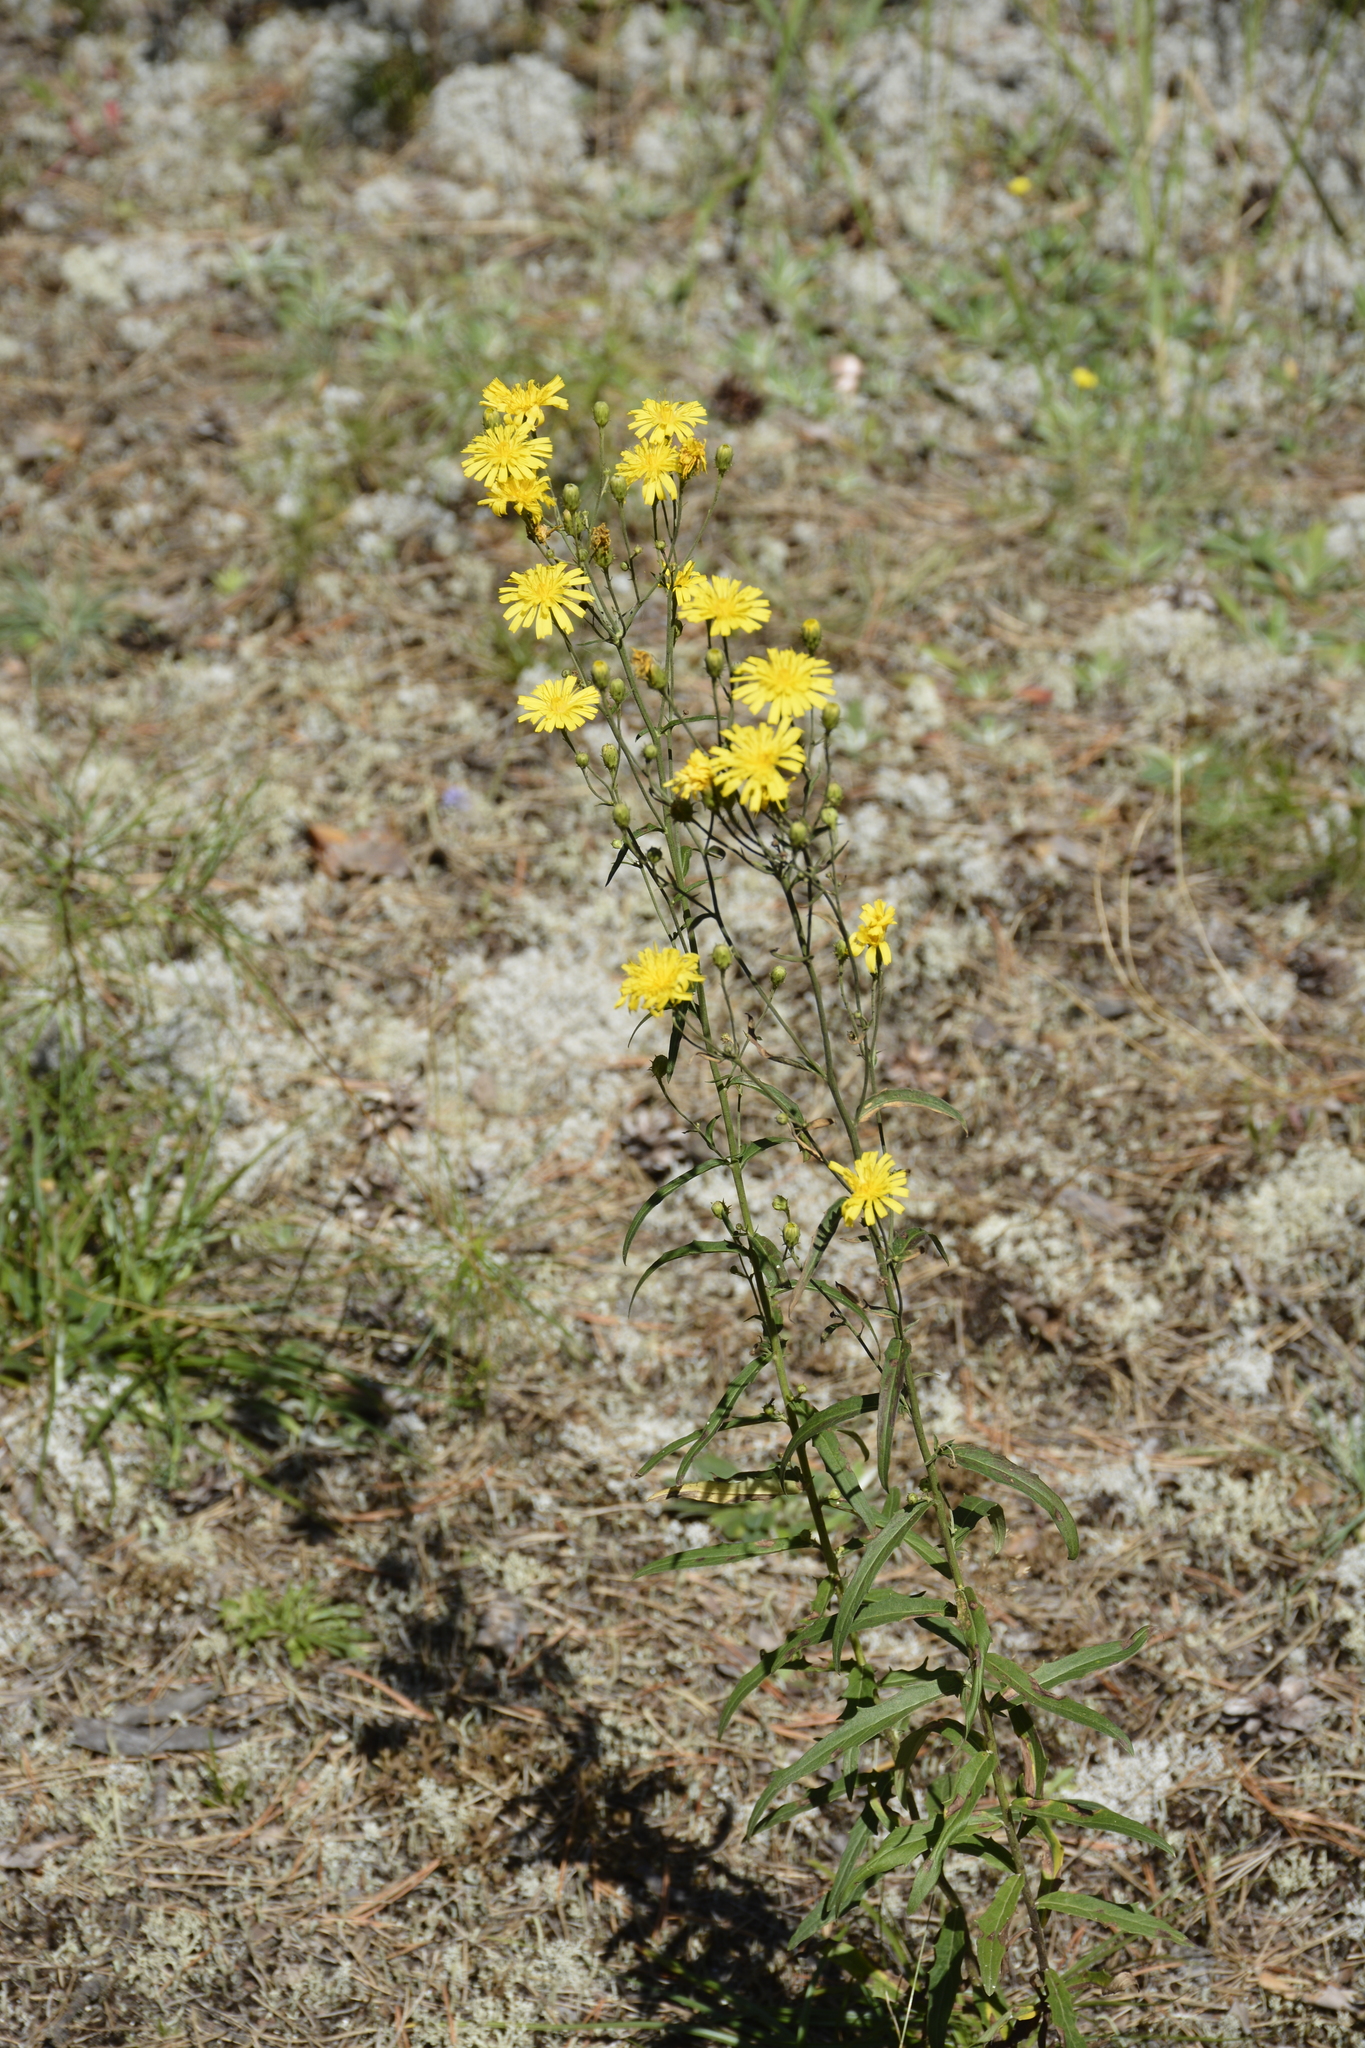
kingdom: Plantae
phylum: Tracheophyta
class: Magnoliopsida
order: Asterales
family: Asteraceae
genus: Hieracium
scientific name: Hieracium umbellatum
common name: Northern hawkweed
